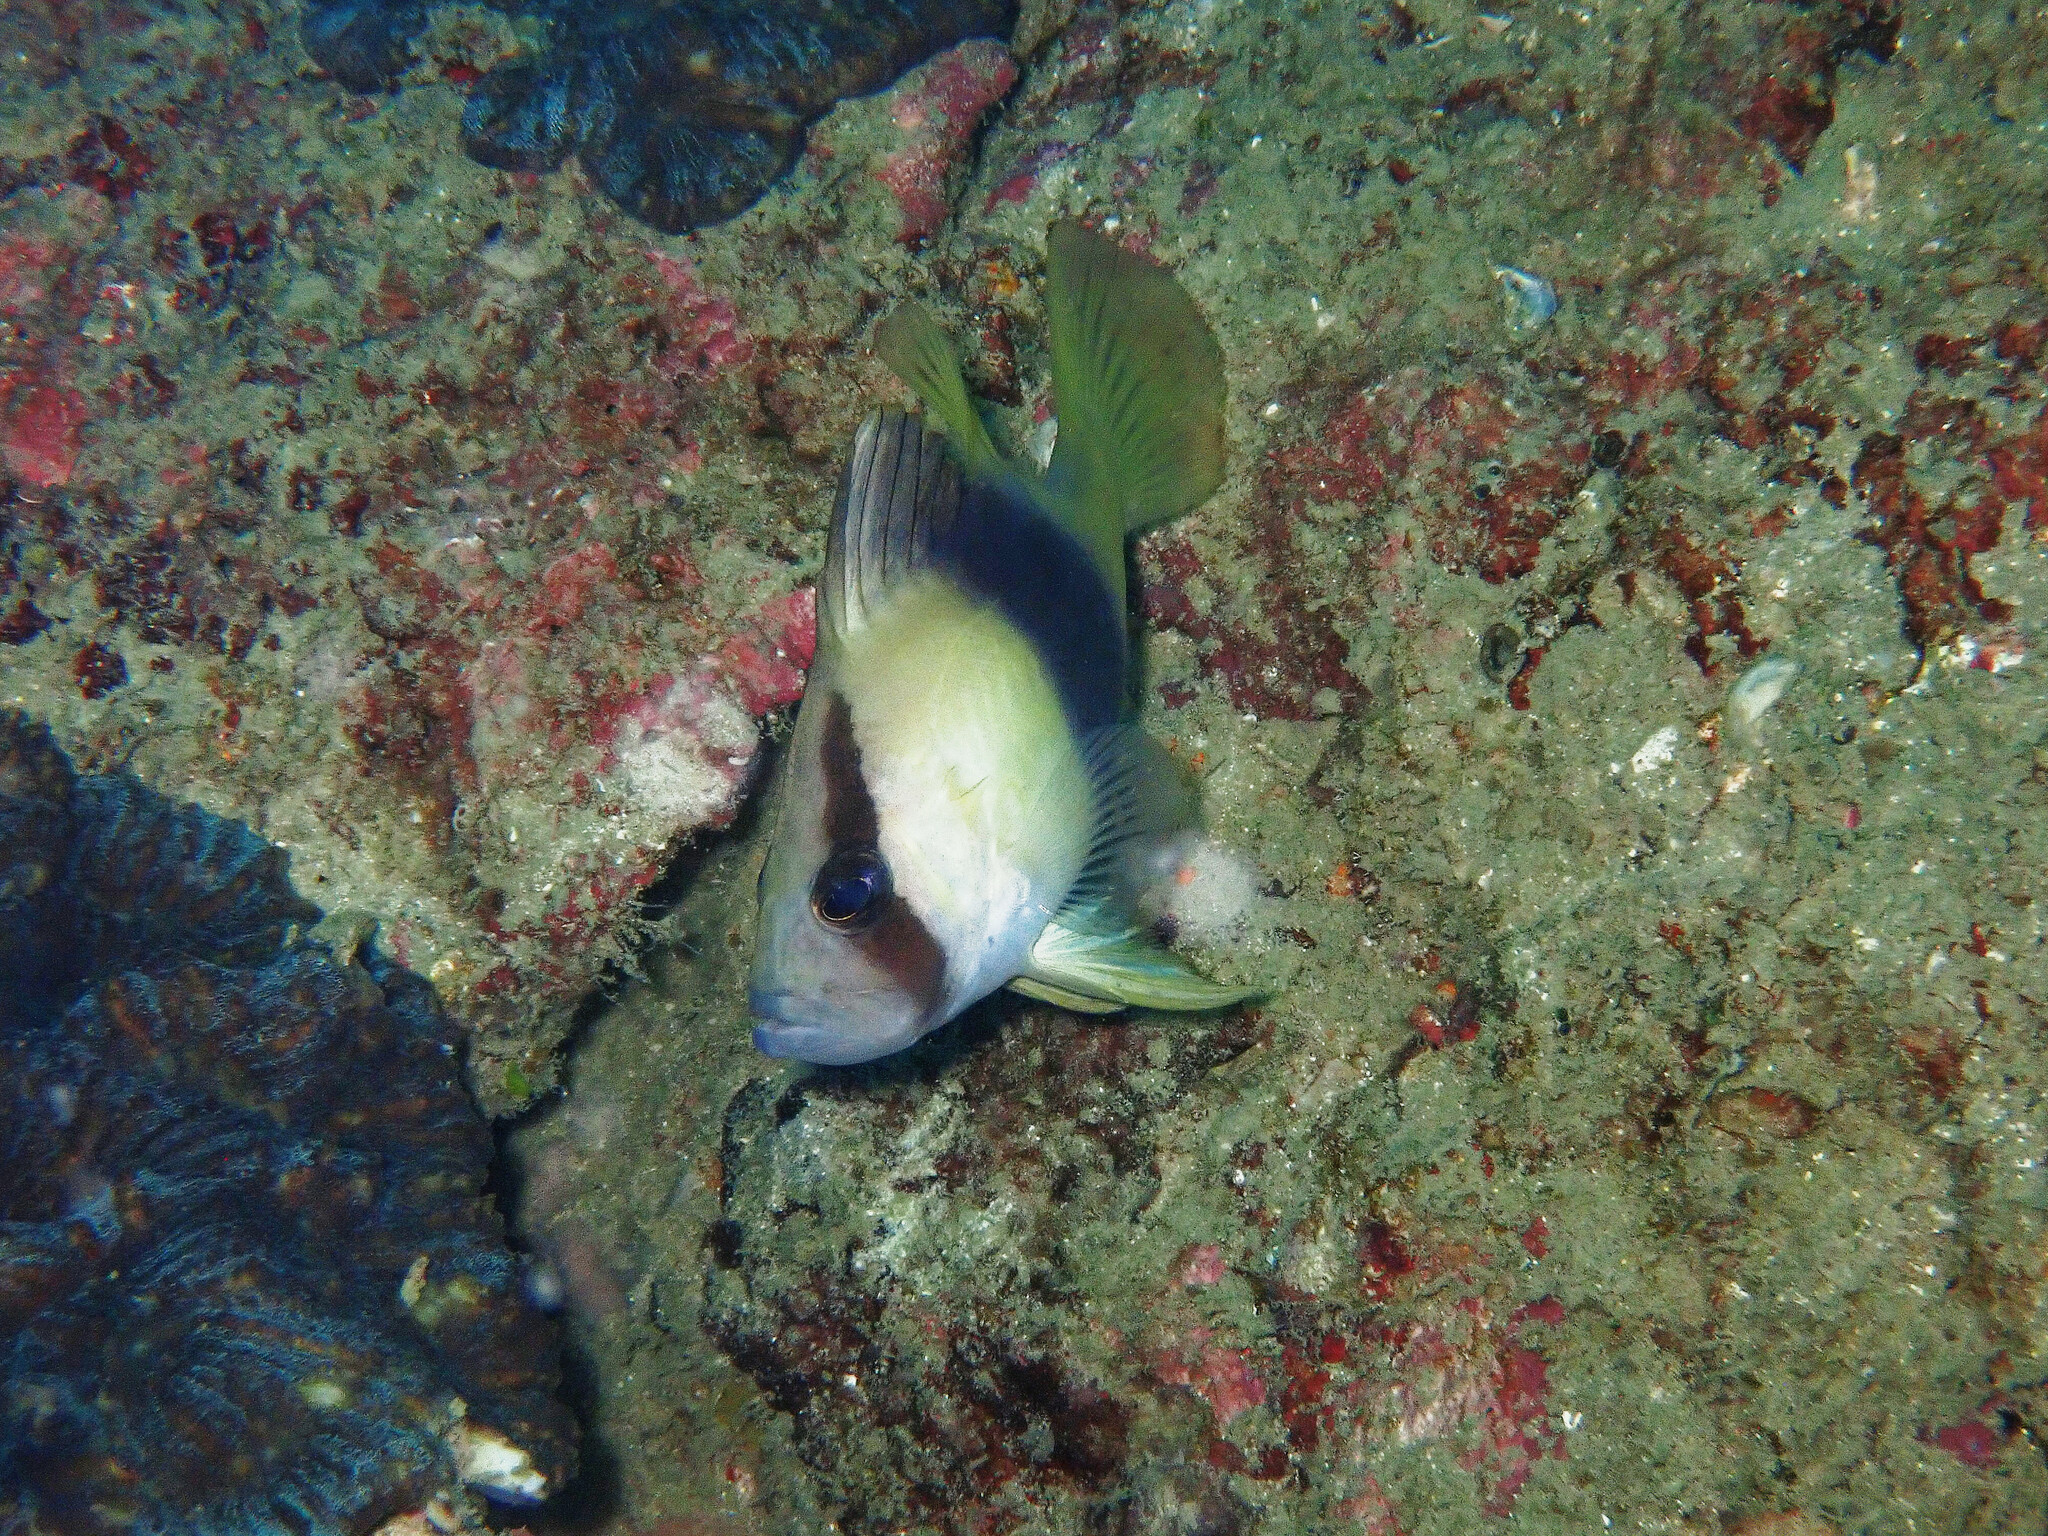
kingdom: Animalia
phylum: Chordata
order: Perciformes
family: Serranidae
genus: Diploprion
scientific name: Diploprion bifasciatum
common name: Barred soapfish
